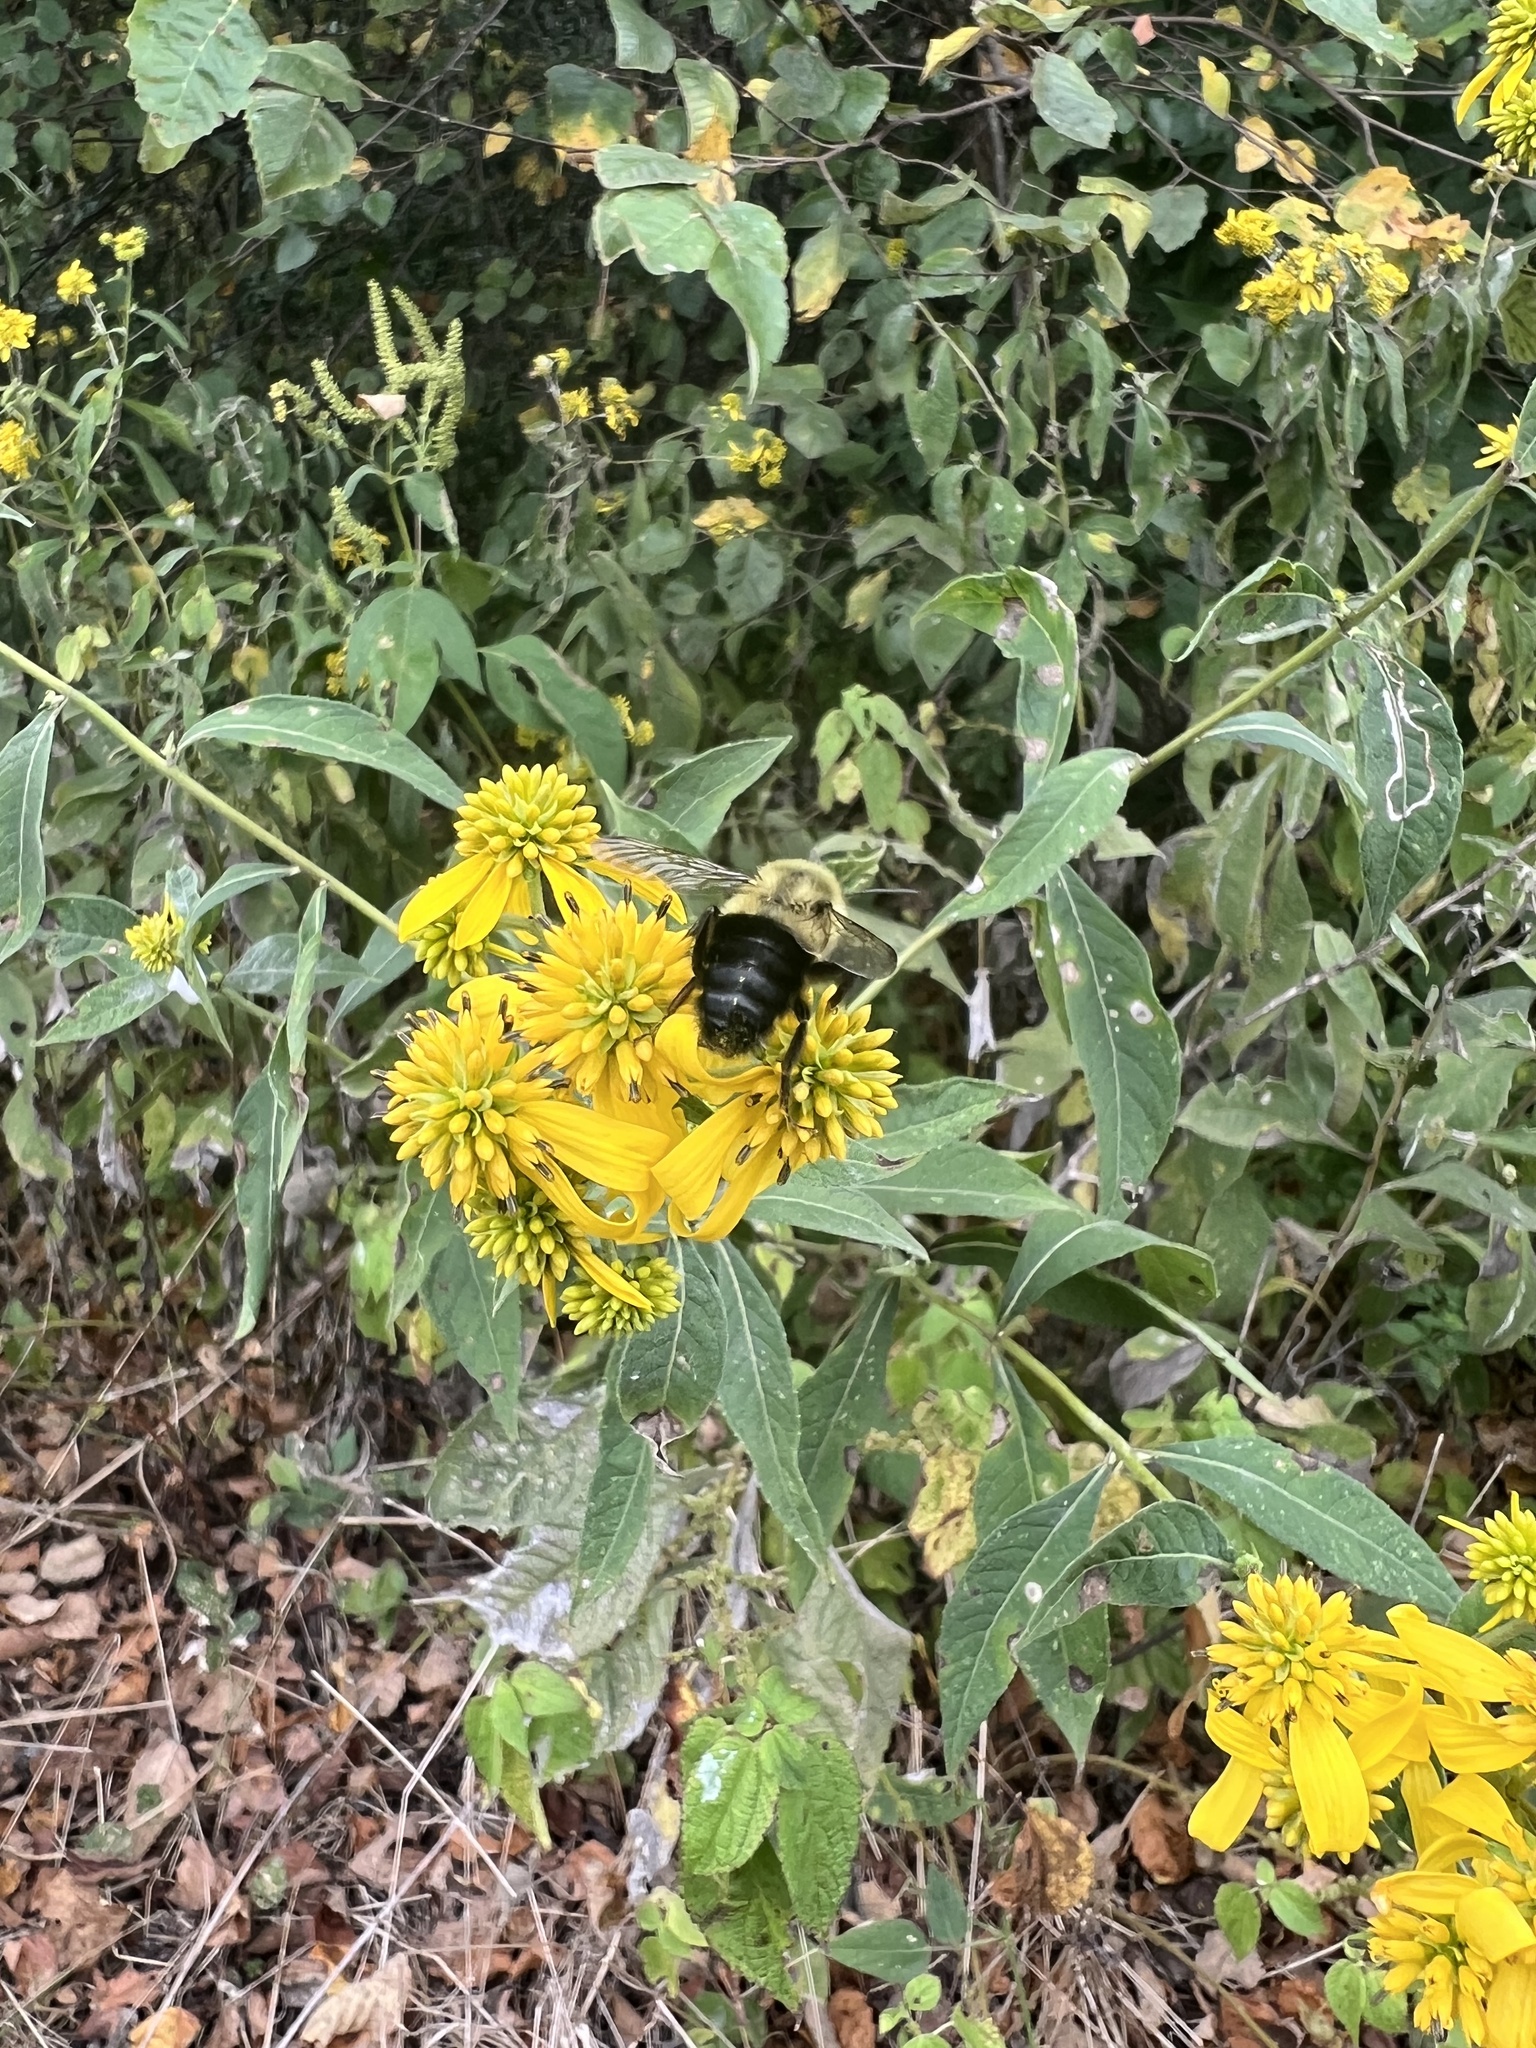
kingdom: Animalia
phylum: Arthropoda
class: Insecta
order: Hymenoptera
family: Apidae
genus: Bombus
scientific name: Bombus impatiens
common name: Common eastern bumble bee
